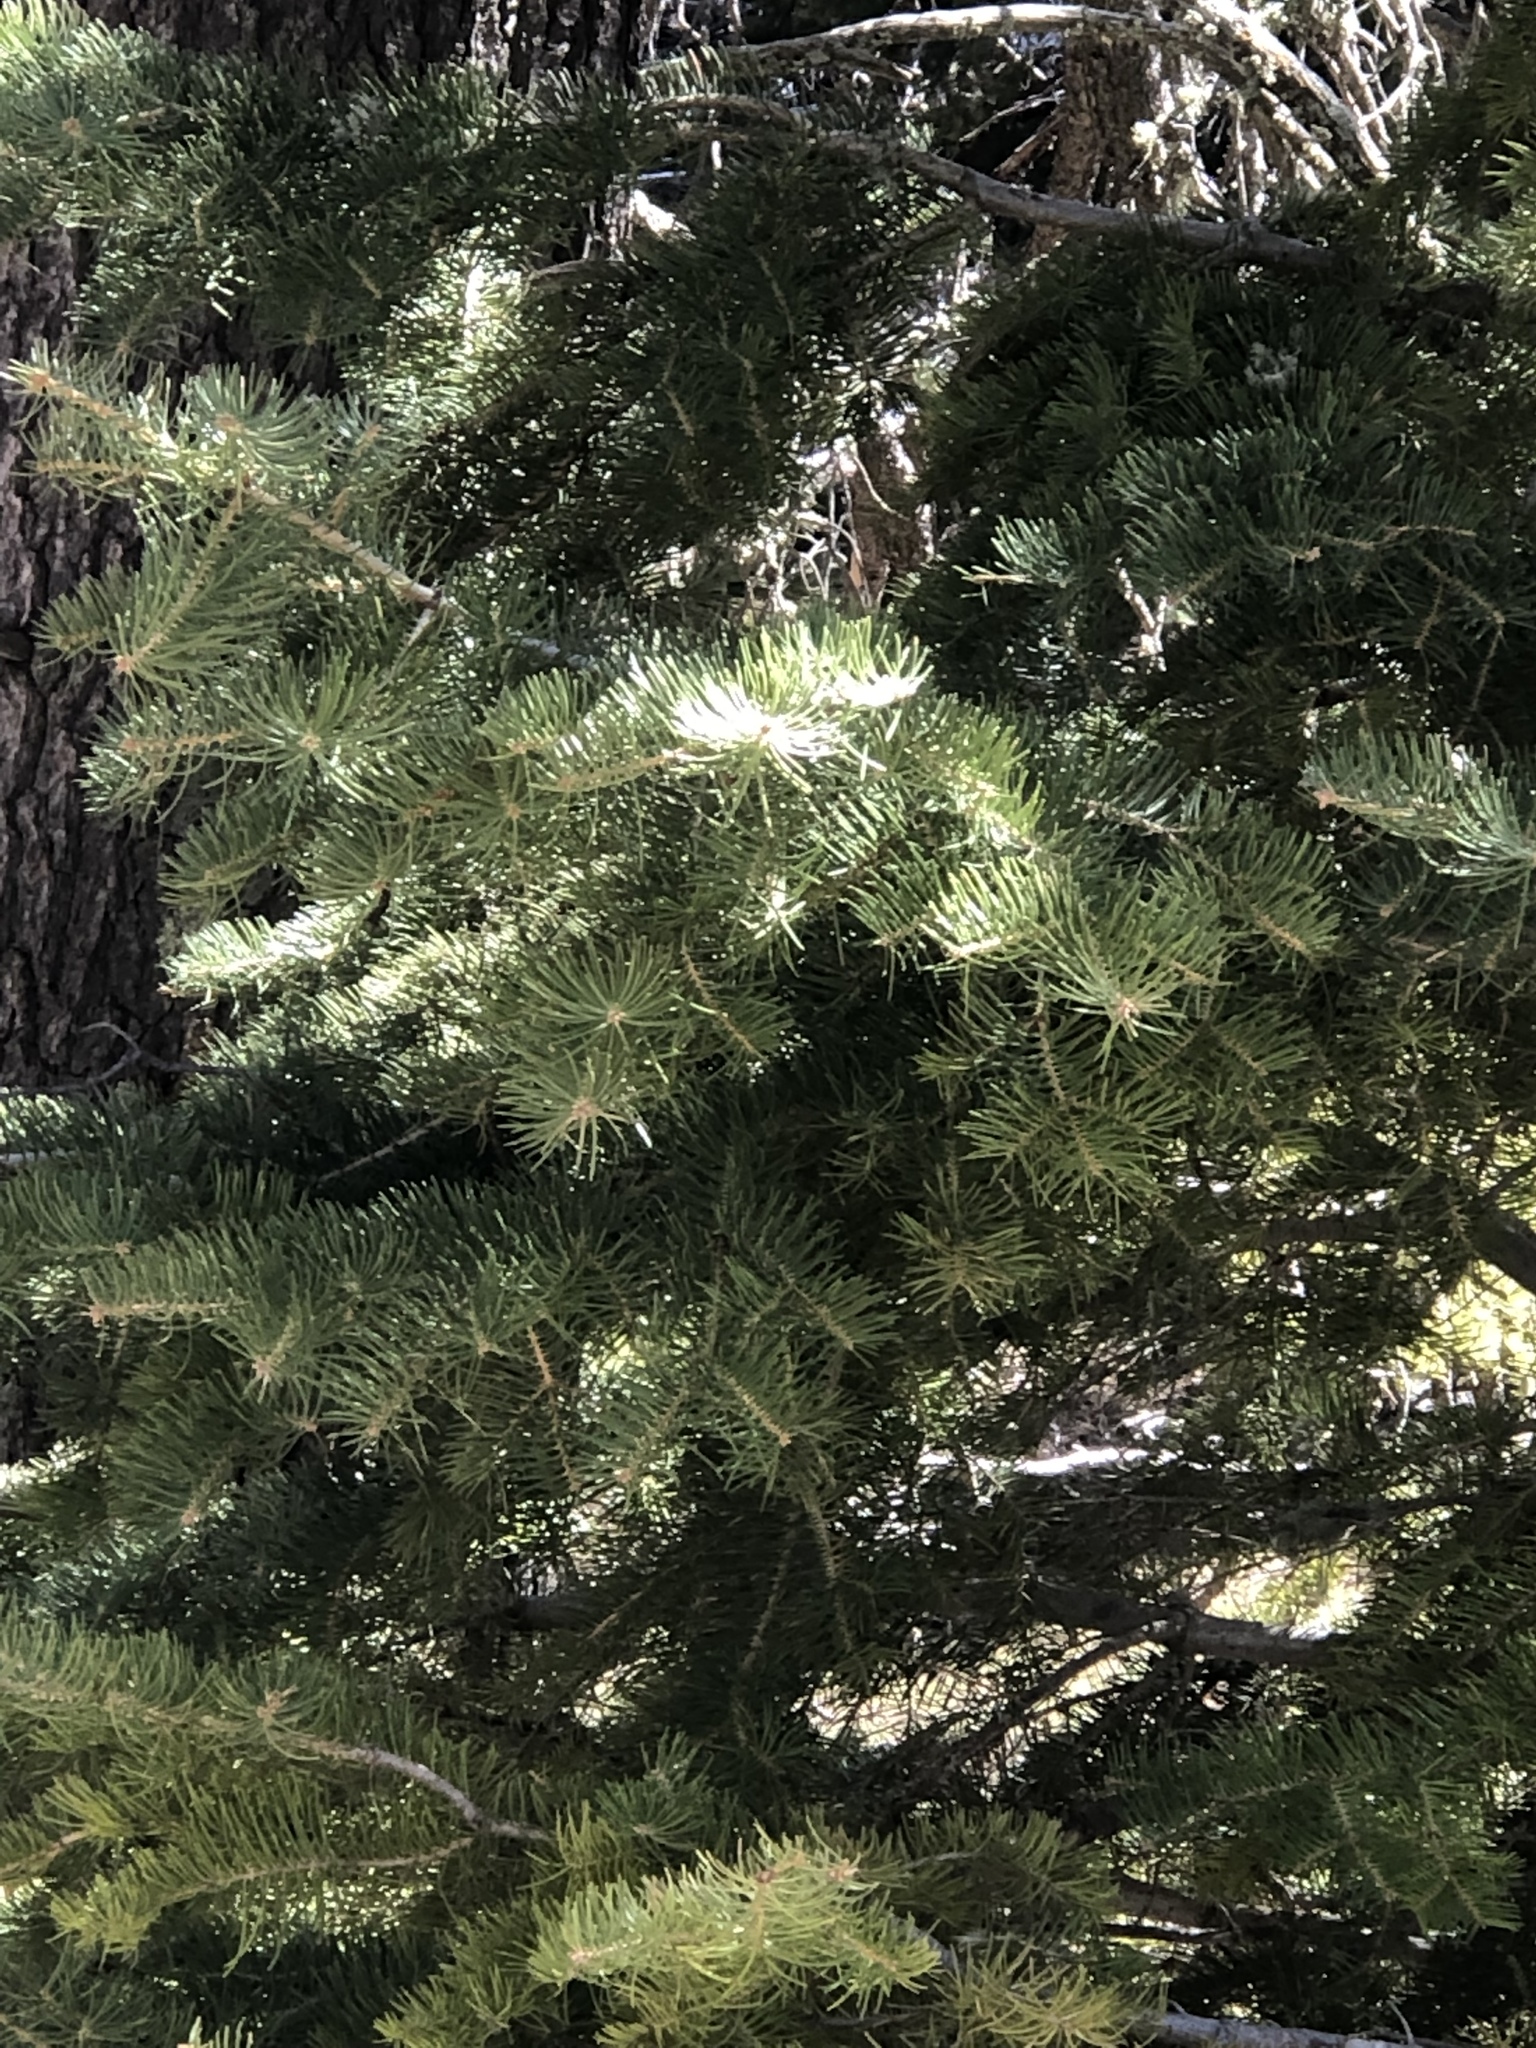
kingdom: Plantae
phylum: Tracheophyta
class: Pinopsida
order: Pinales
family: Pinaceae
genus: Abies
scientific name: Abies concolor
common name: Colorado fir
